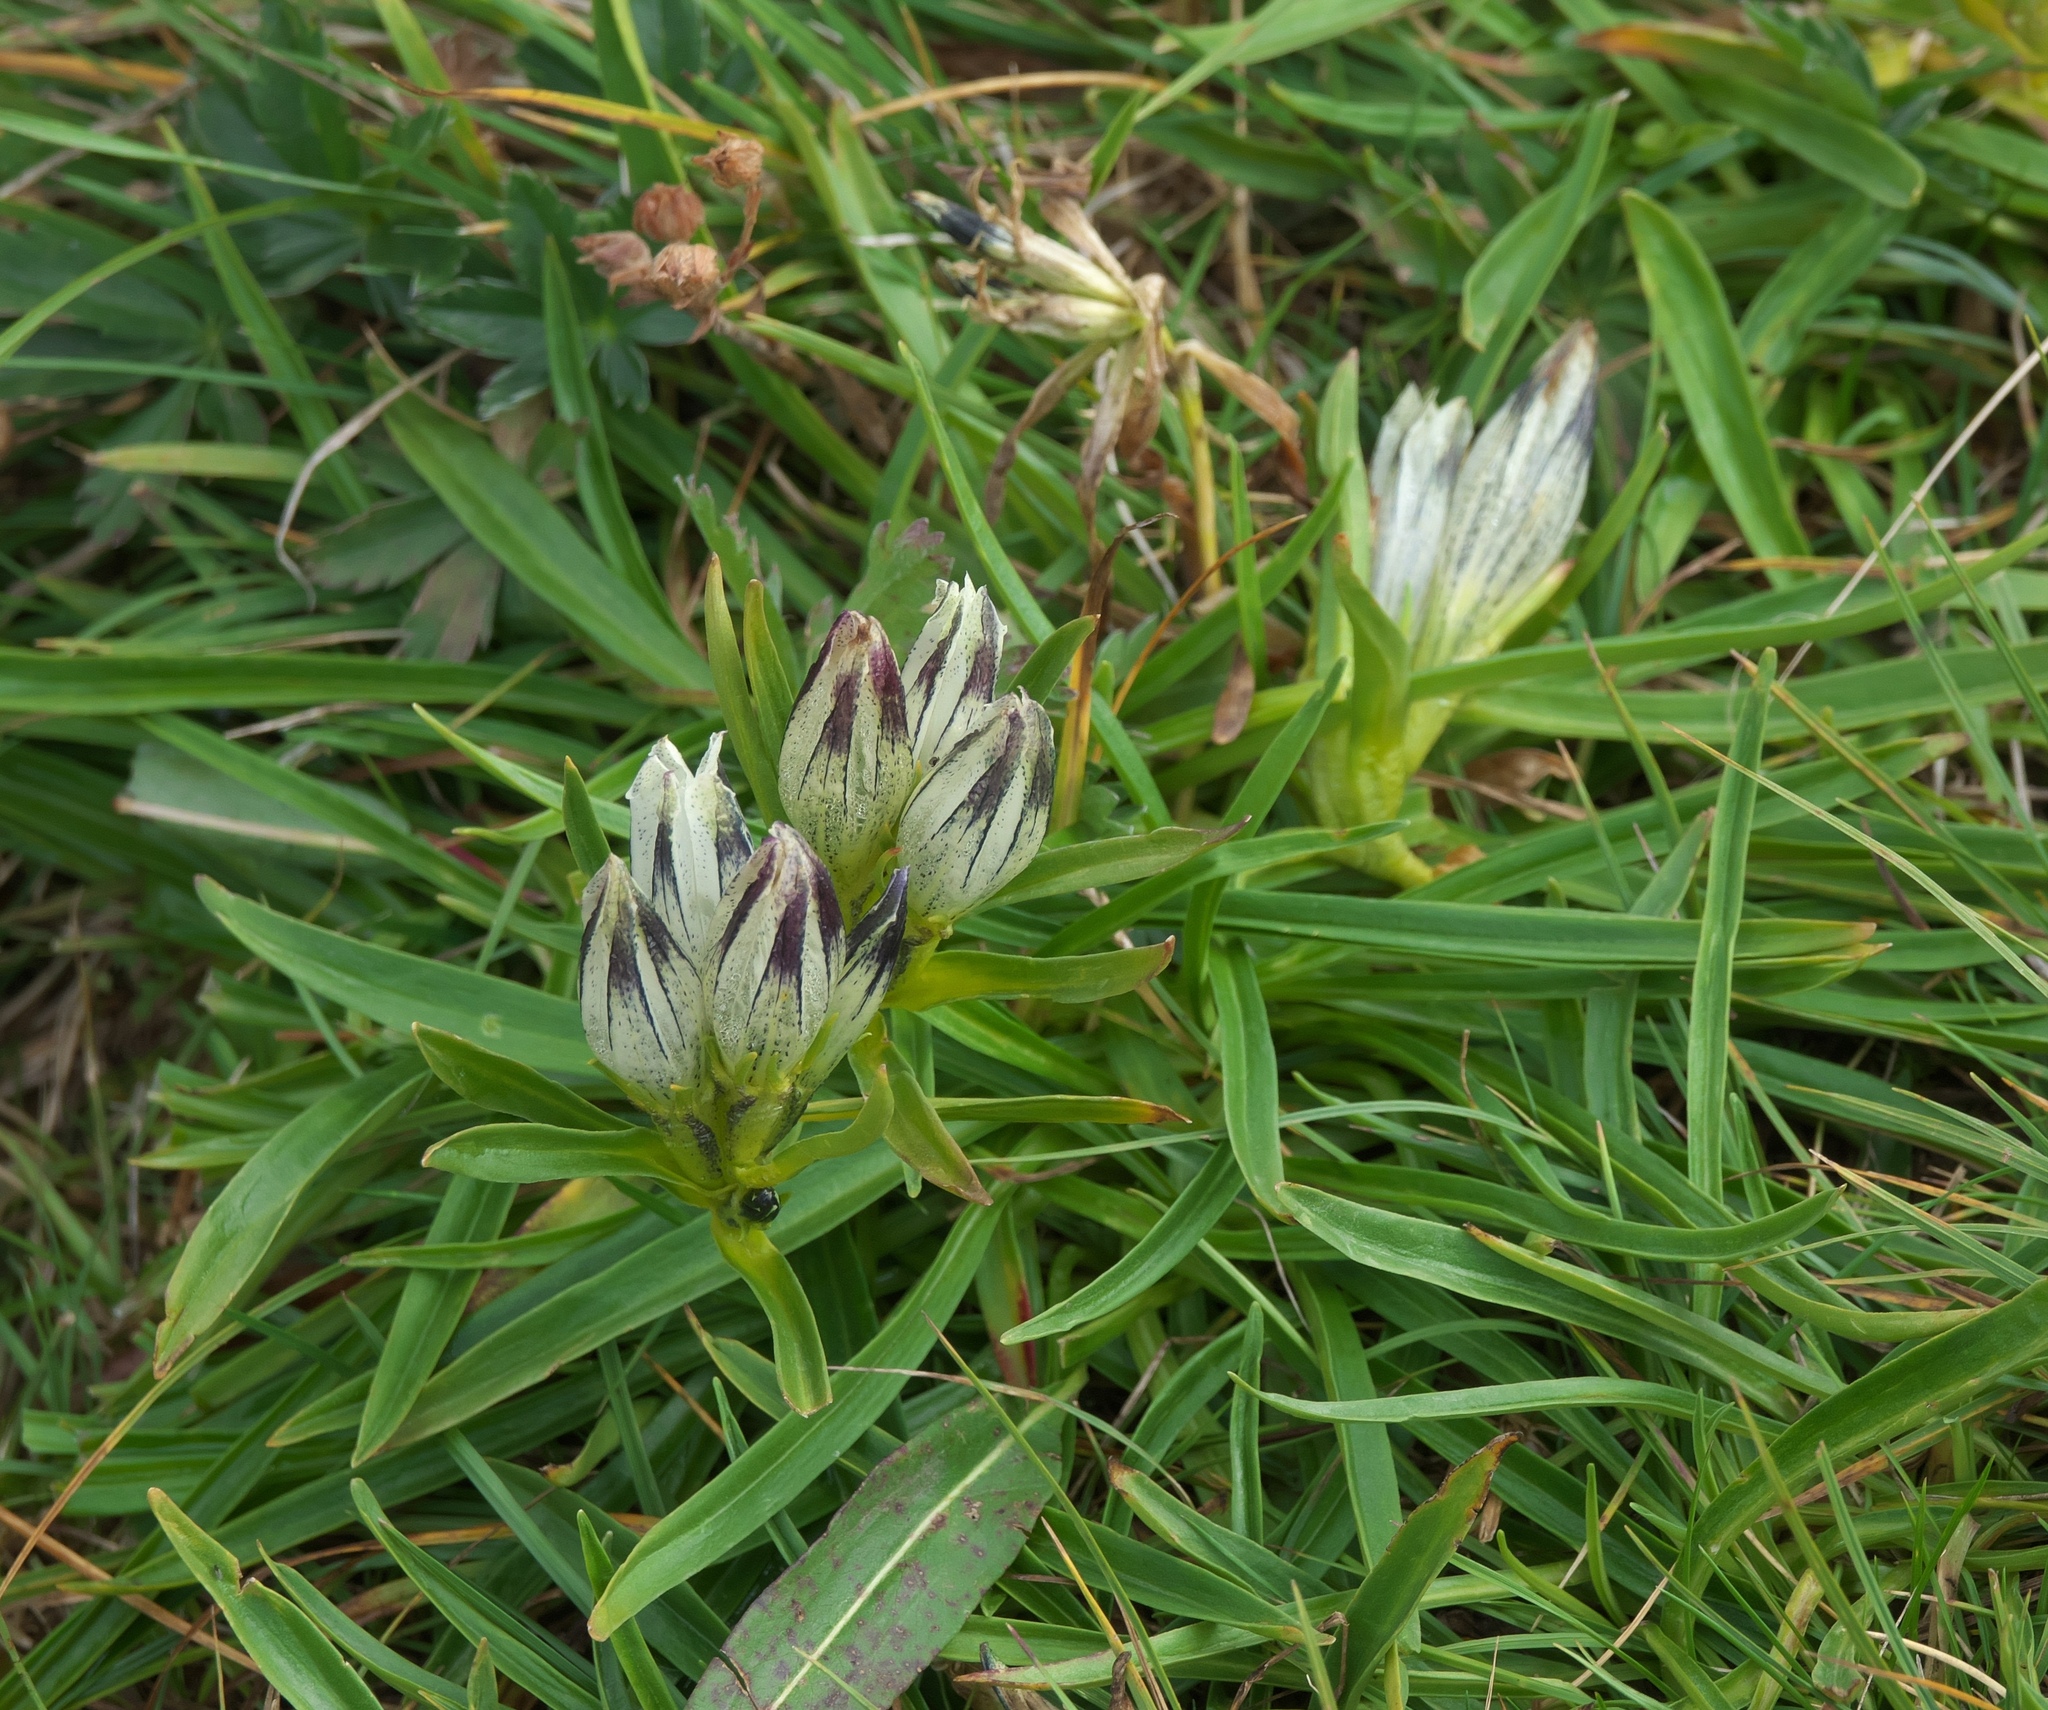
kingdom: Plantae
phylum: Tracheophyta
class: Magnoliopsida
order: Gentianales
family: Gentianaceae
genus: Gentiana
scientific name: Gentiana algida
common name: Arctic gentian
